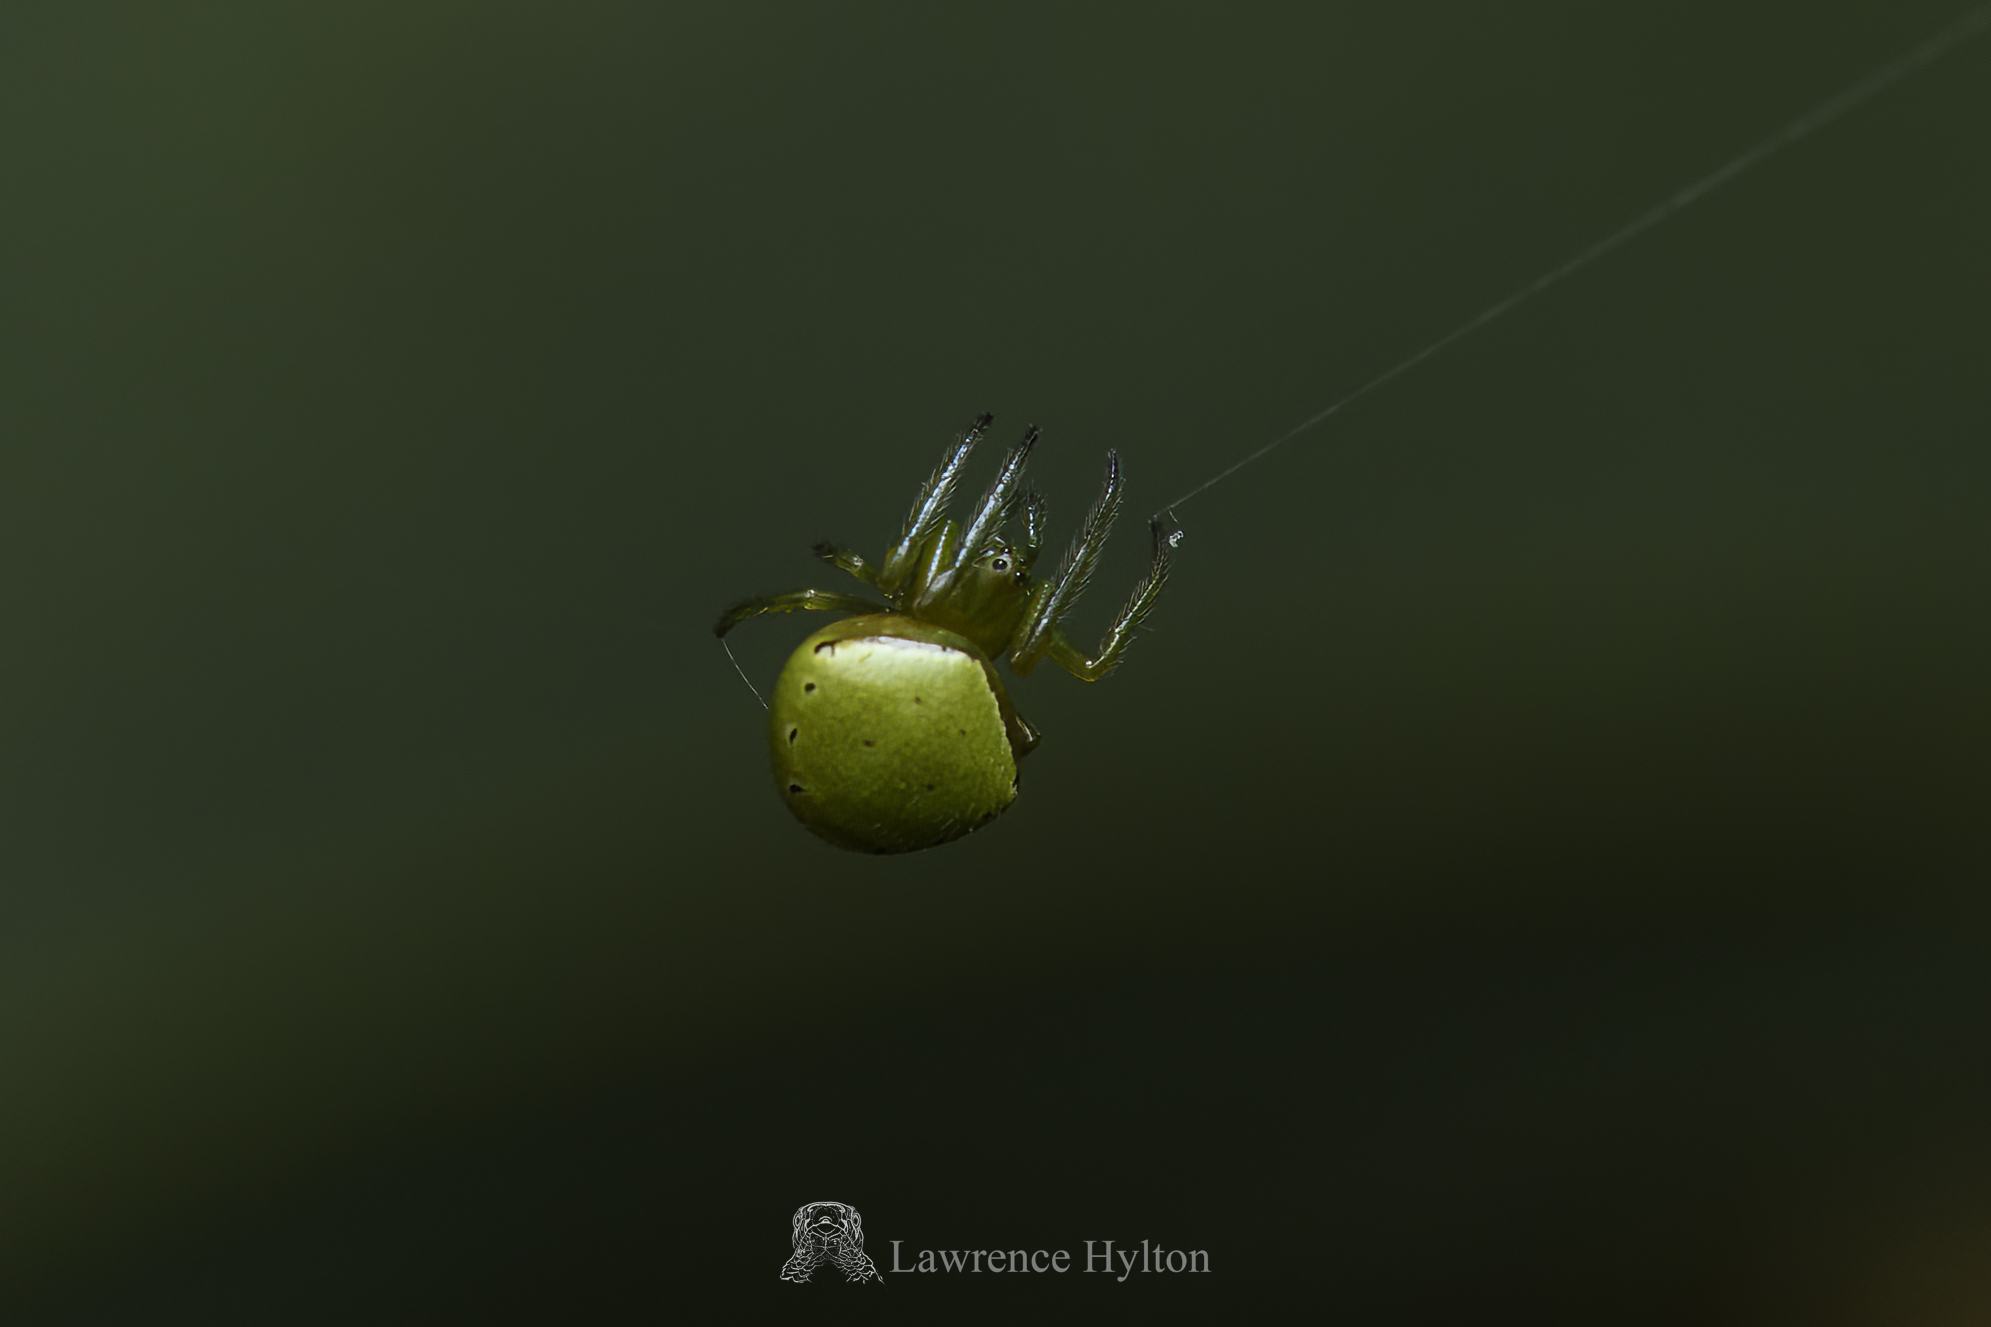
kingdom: Animalia
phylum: Arthropoda
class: Arachnida
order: Araneae
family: Araneidae
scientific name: Araneidae
